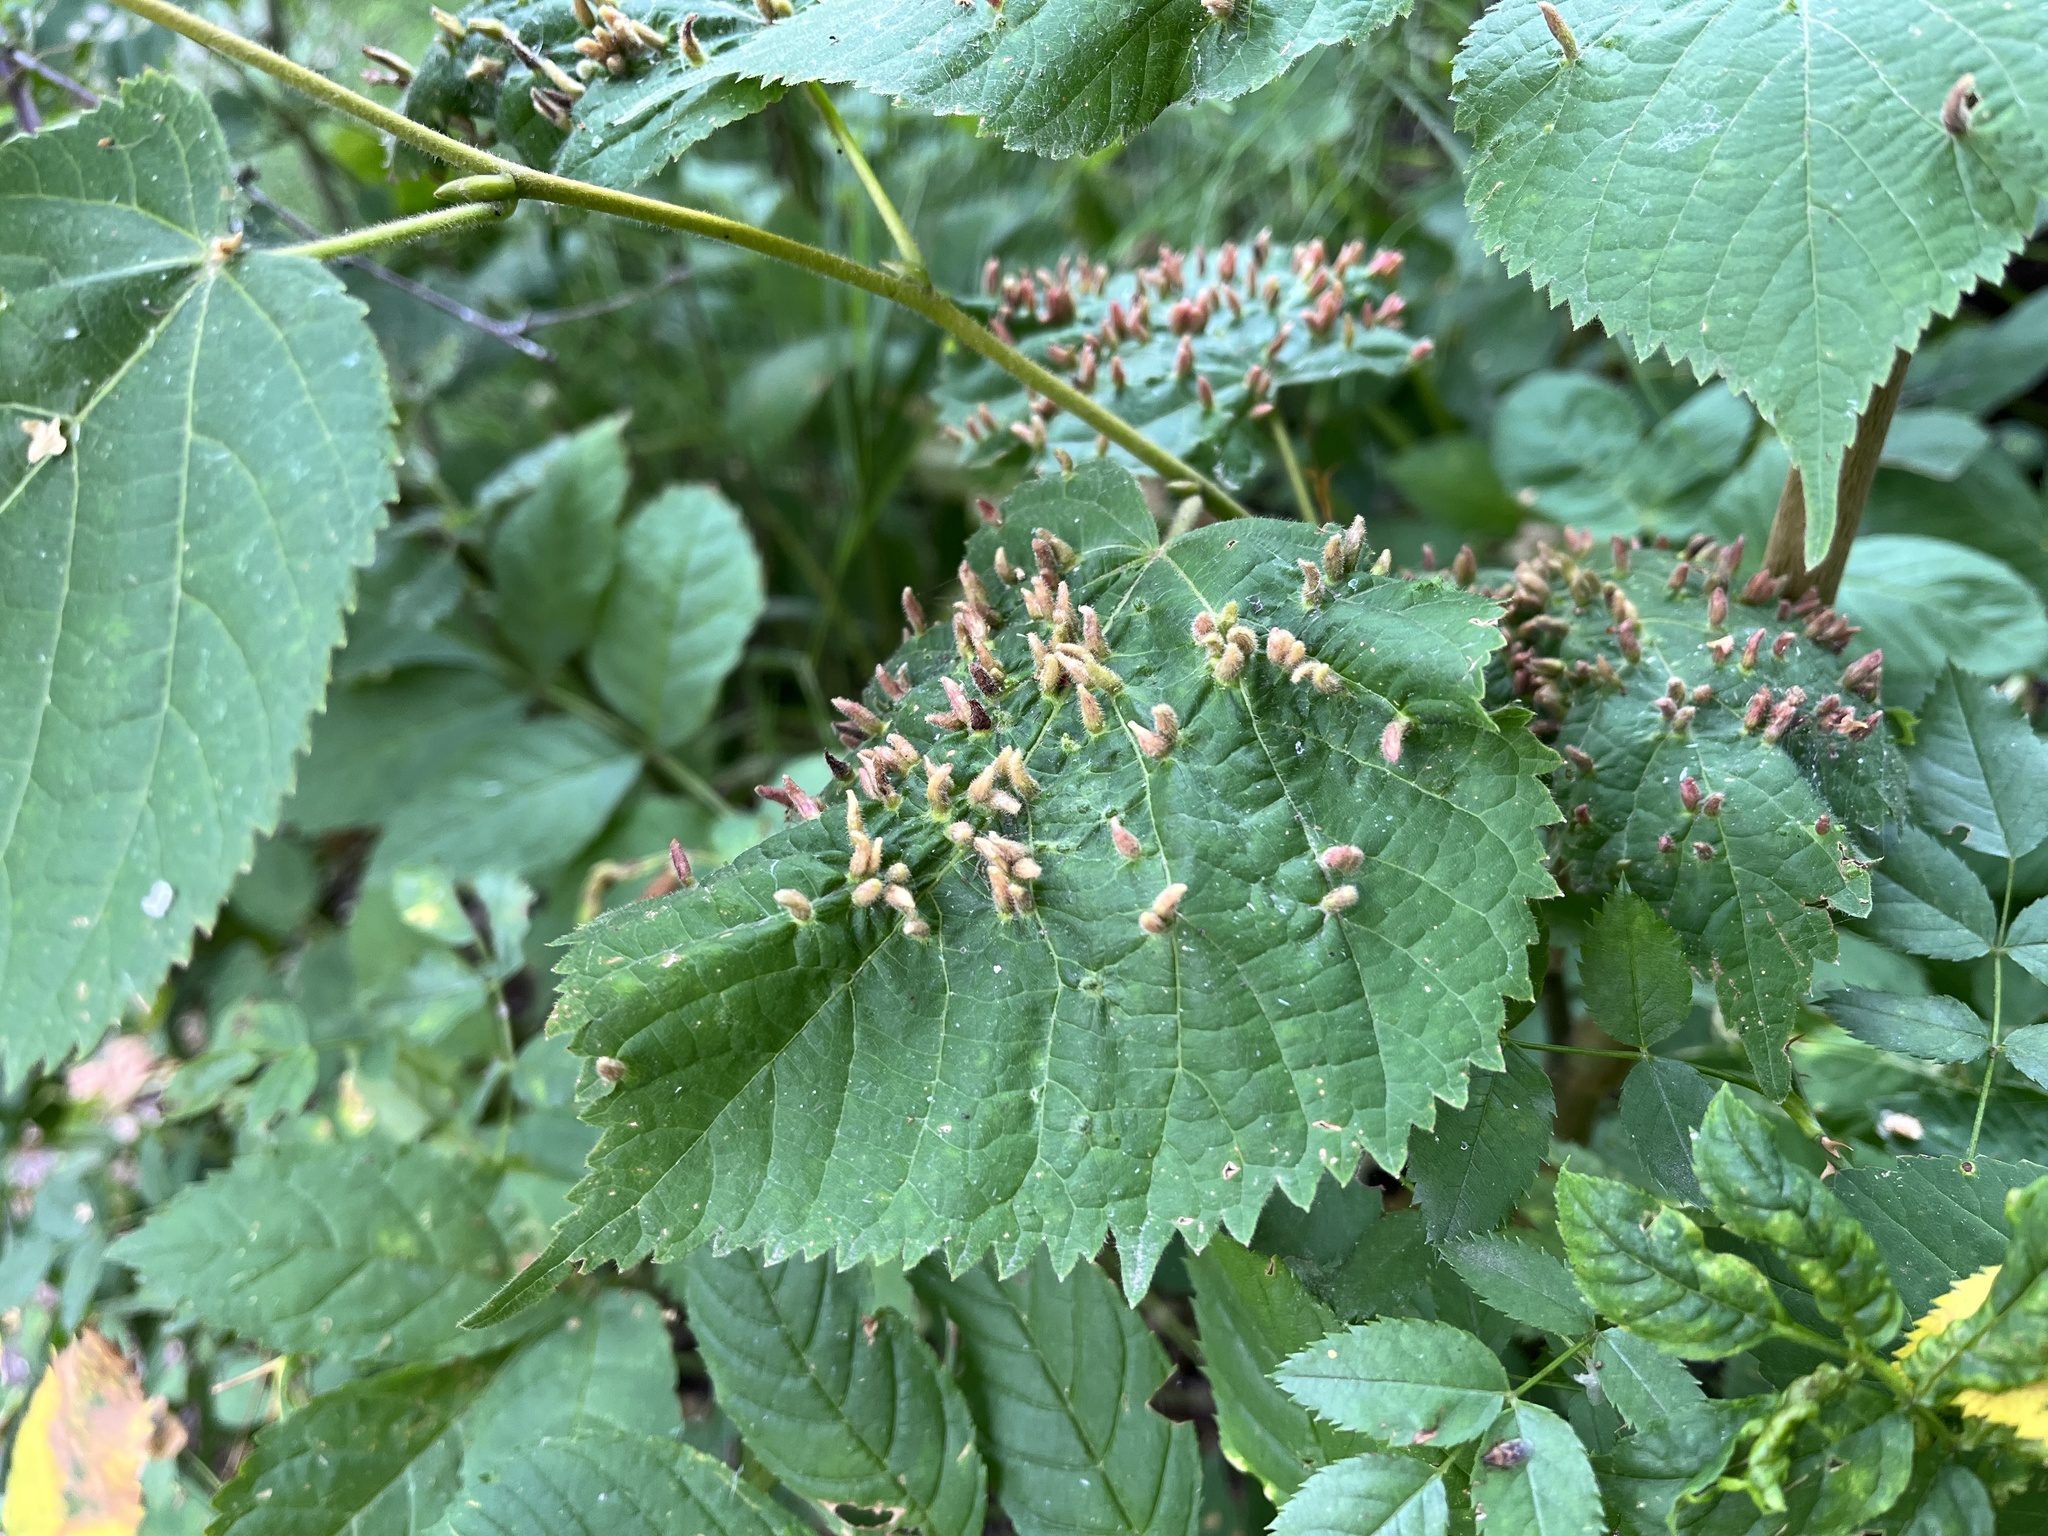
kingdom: Animalia
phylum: Arthropoda
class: Arachnida
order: Trombidiformes
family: Eriophyidae
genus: Eriophyes
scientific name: Eriophyes tiliae
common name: Red nail gall mite
